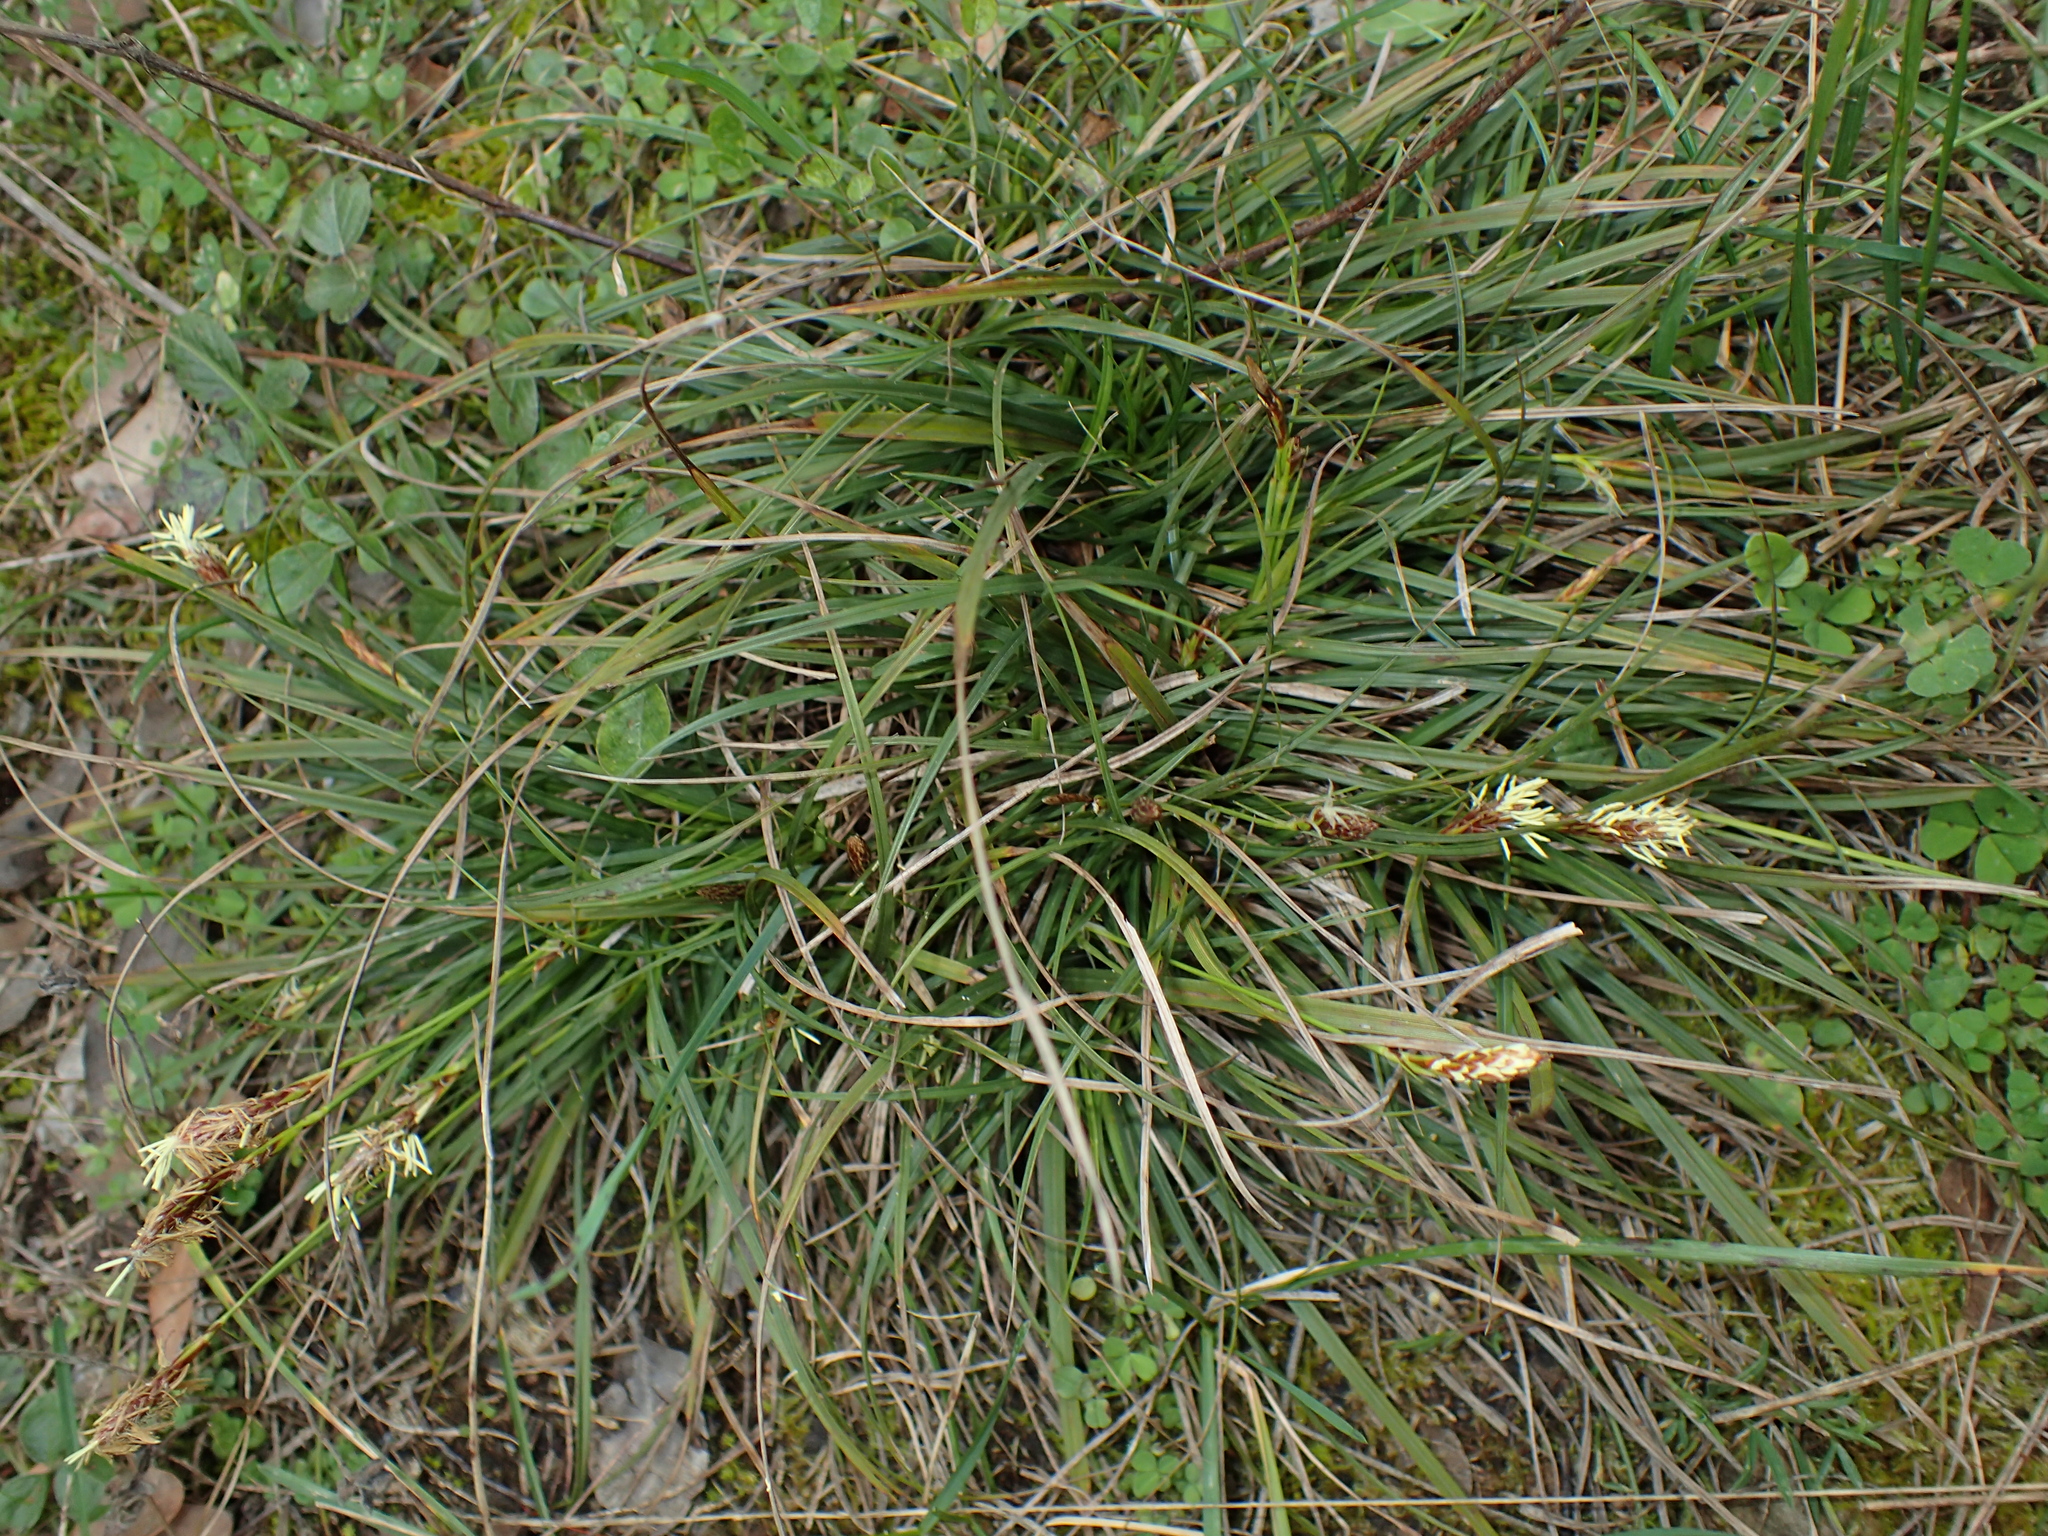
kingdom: Plantae
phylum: Tracheophyta
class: Liliopsida
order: Poales
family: Cyperaceae
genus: Carex
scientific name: Carex halleriana
